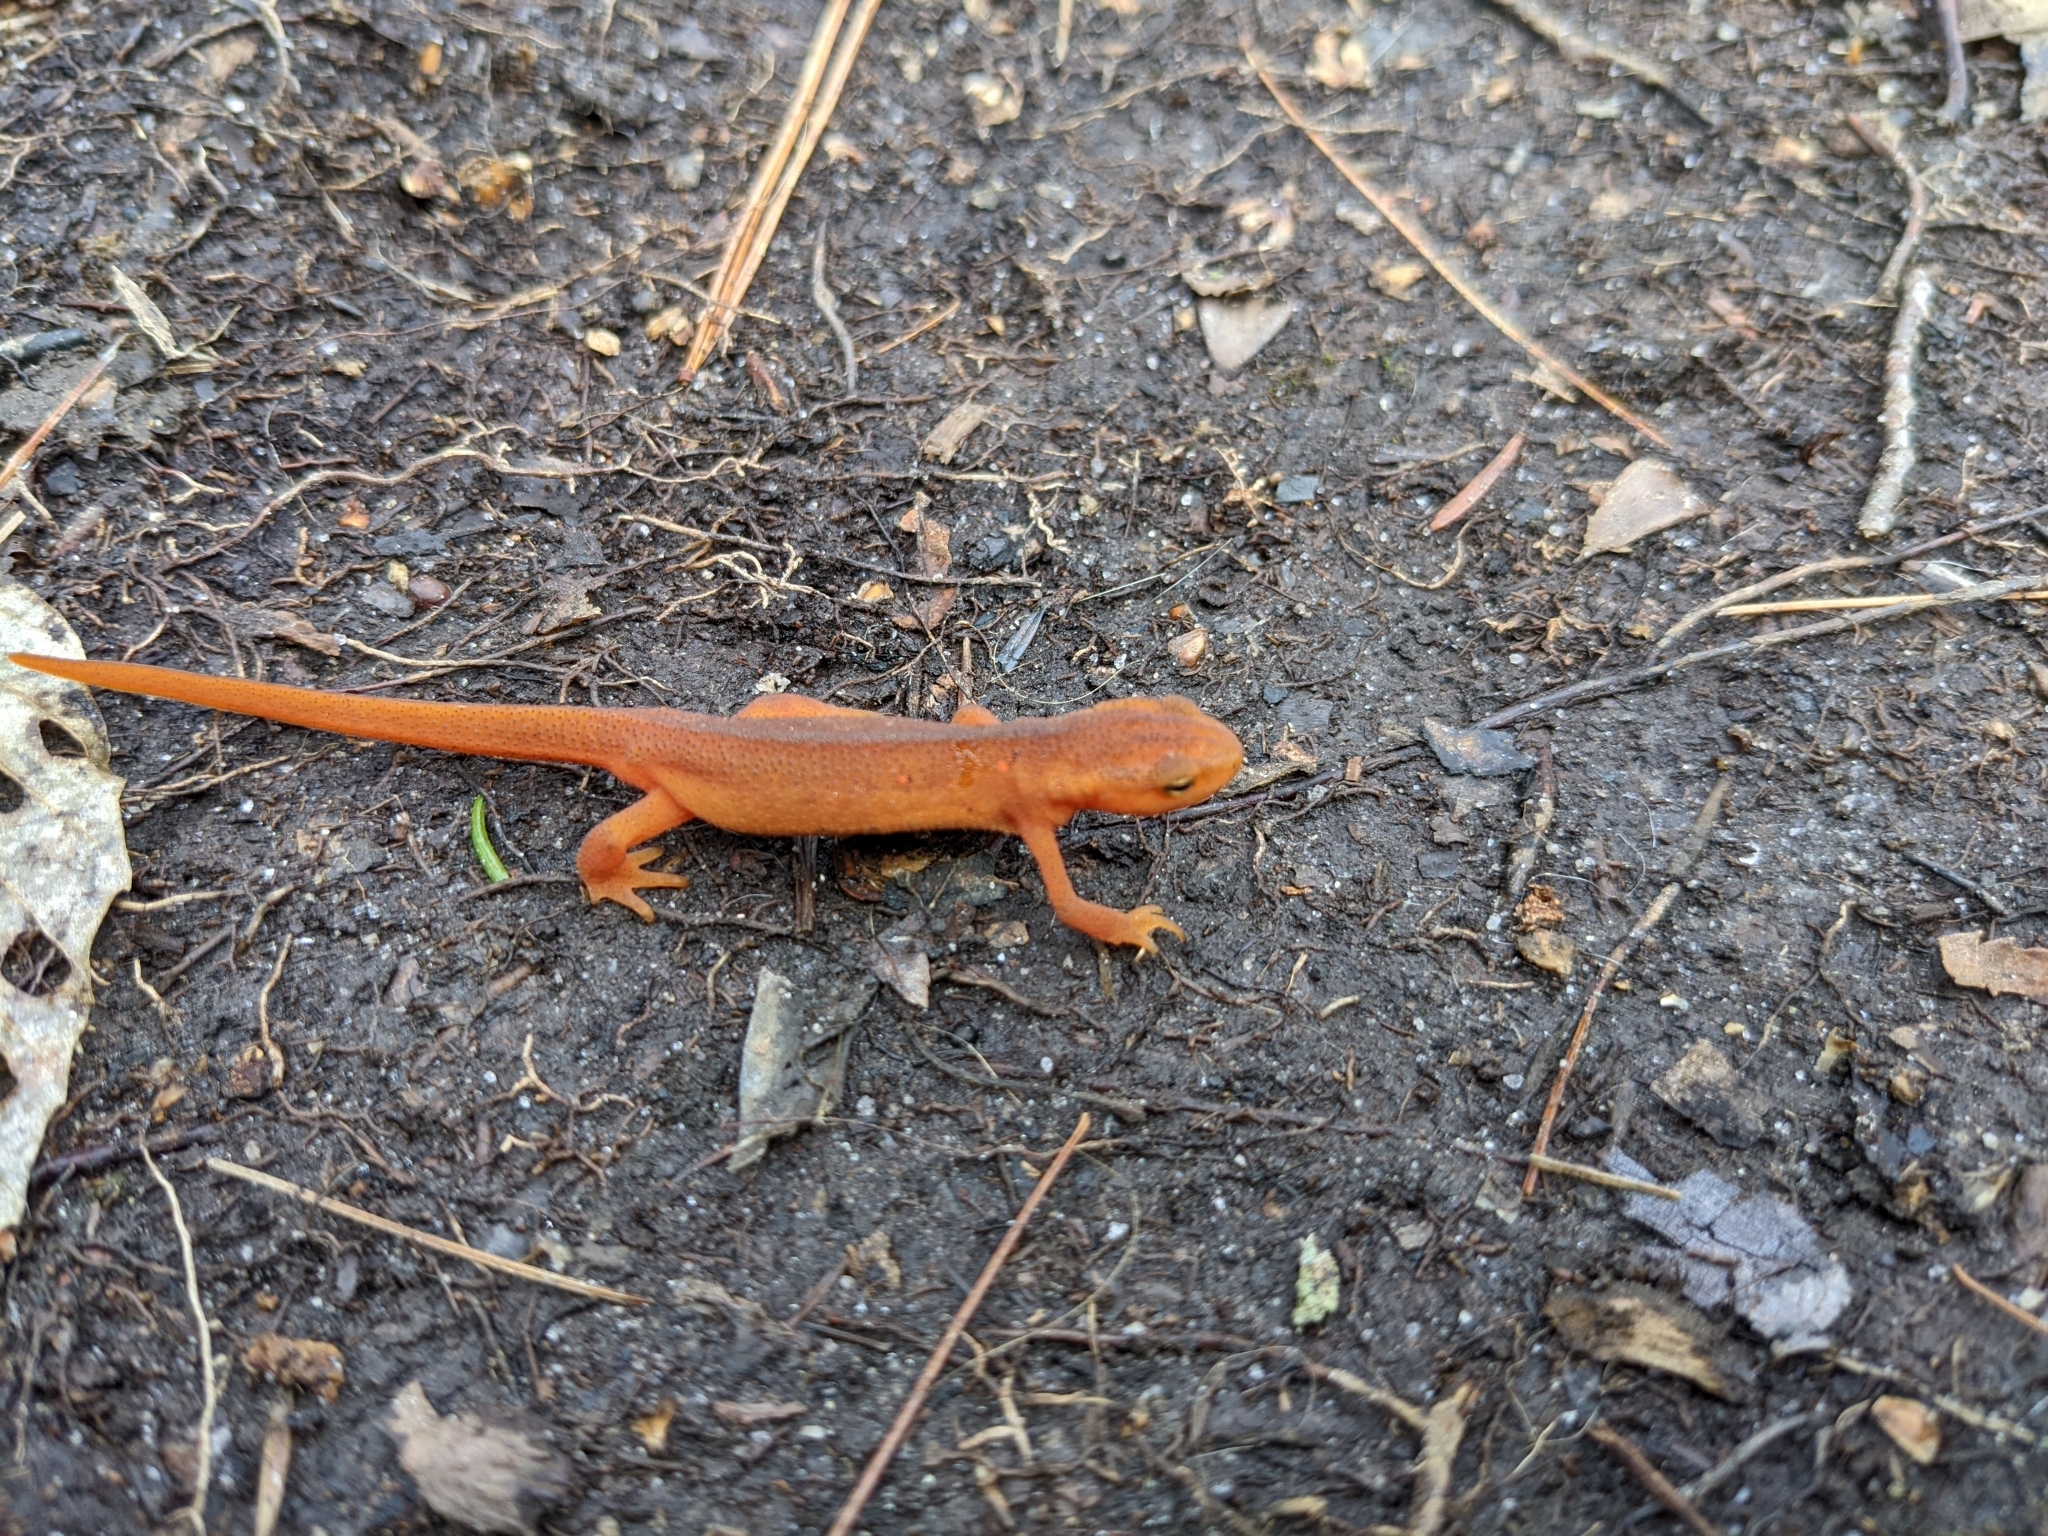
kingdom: Animalia
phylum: Chordata
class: Amphibia
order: Caudata
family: Salamandridae
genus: Notophthalmus
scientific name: Notophthalmus viridescens
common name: Eastern newt
